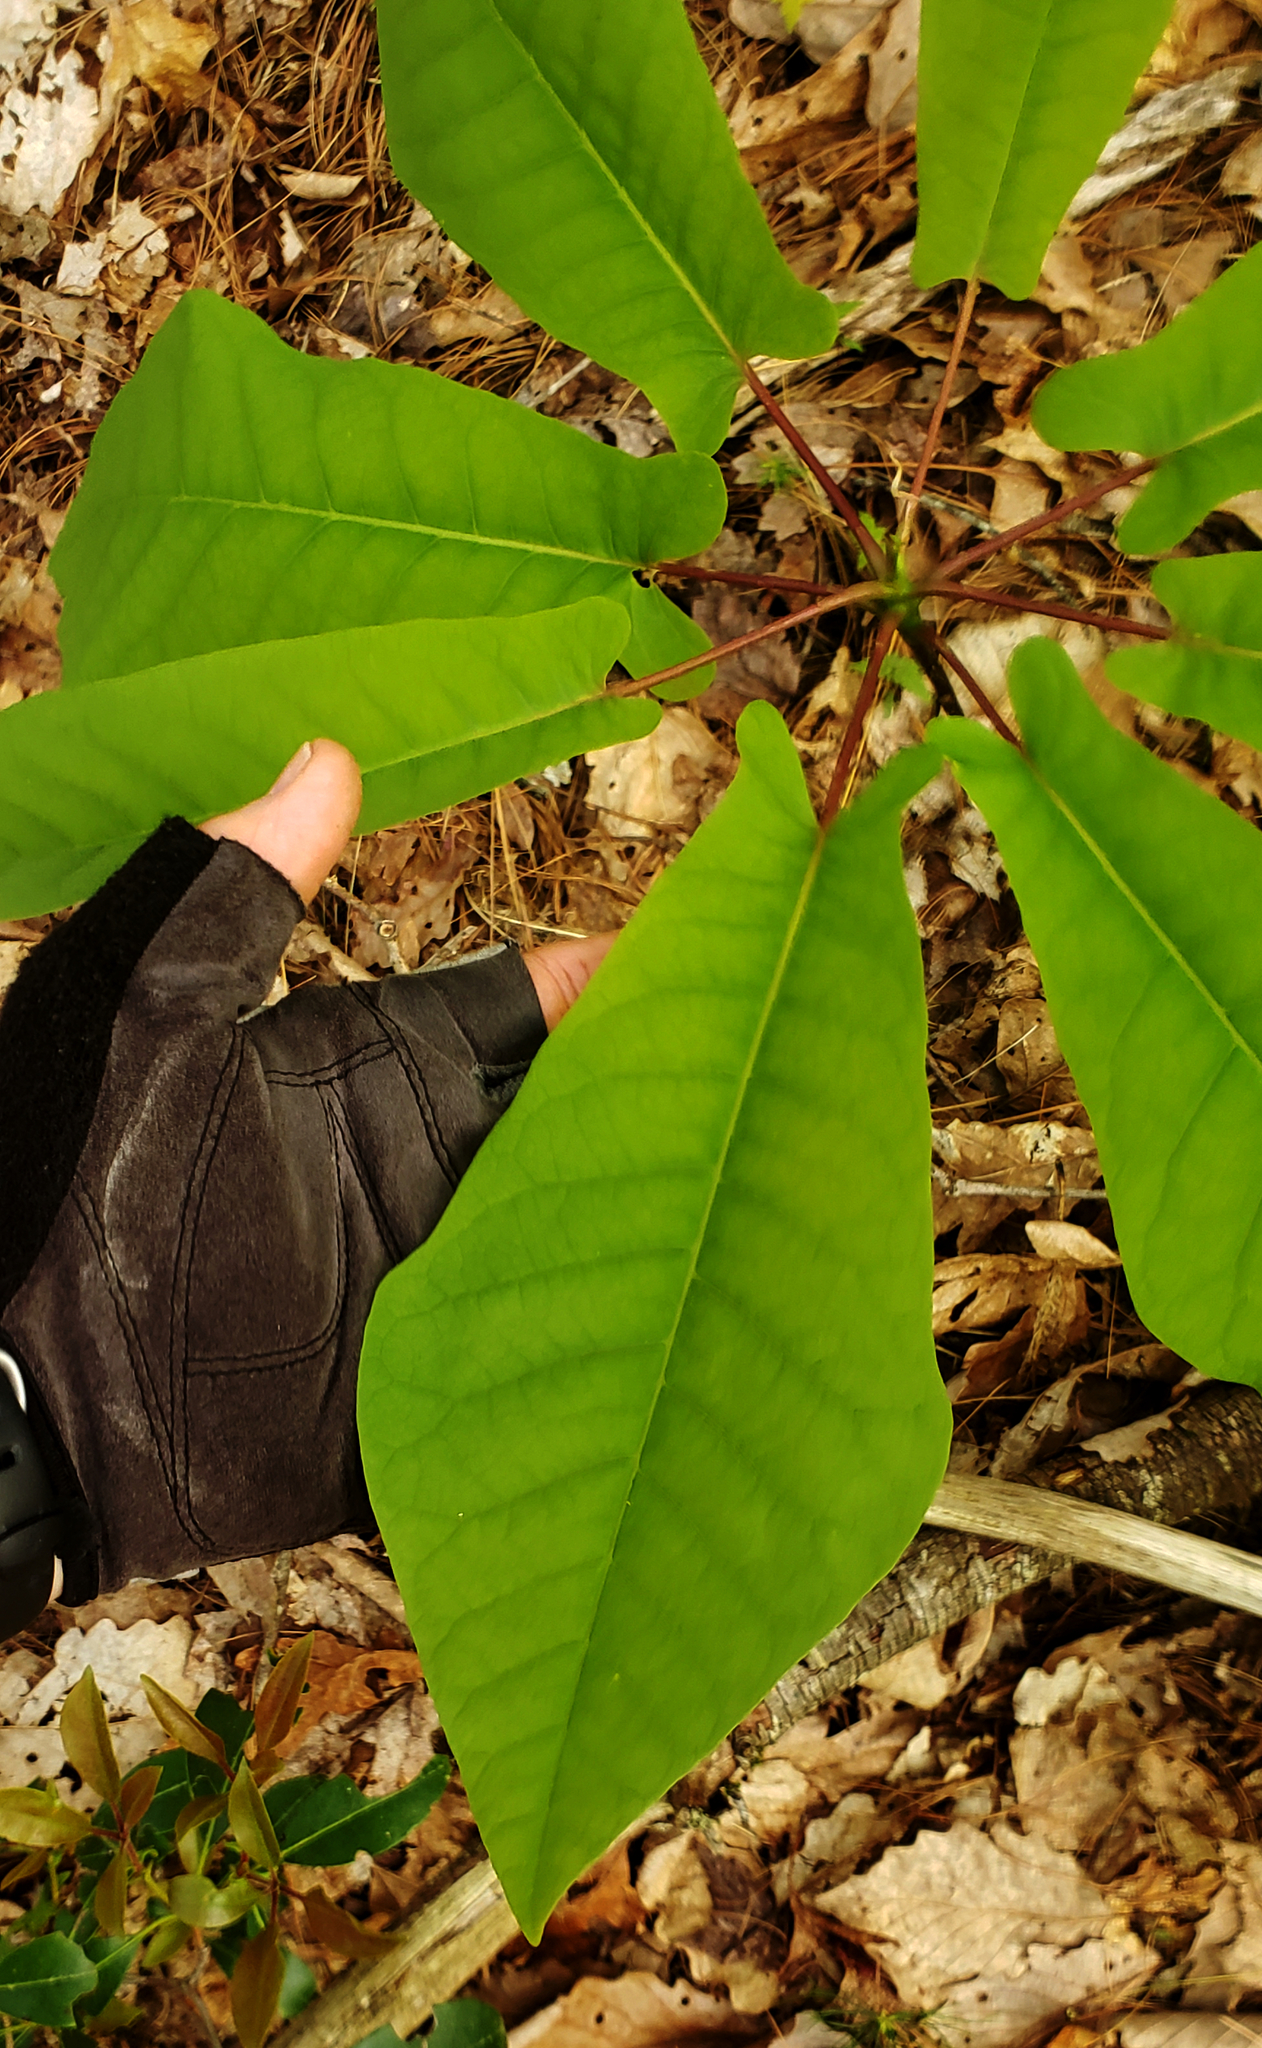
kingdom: Plantae
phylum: Tracheophyta
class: Magnoliopsida
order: Magnoliales
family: Magnoliaceae
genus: Magnolia
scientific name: Magnolia fraseri
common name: Fraser's magnolia
